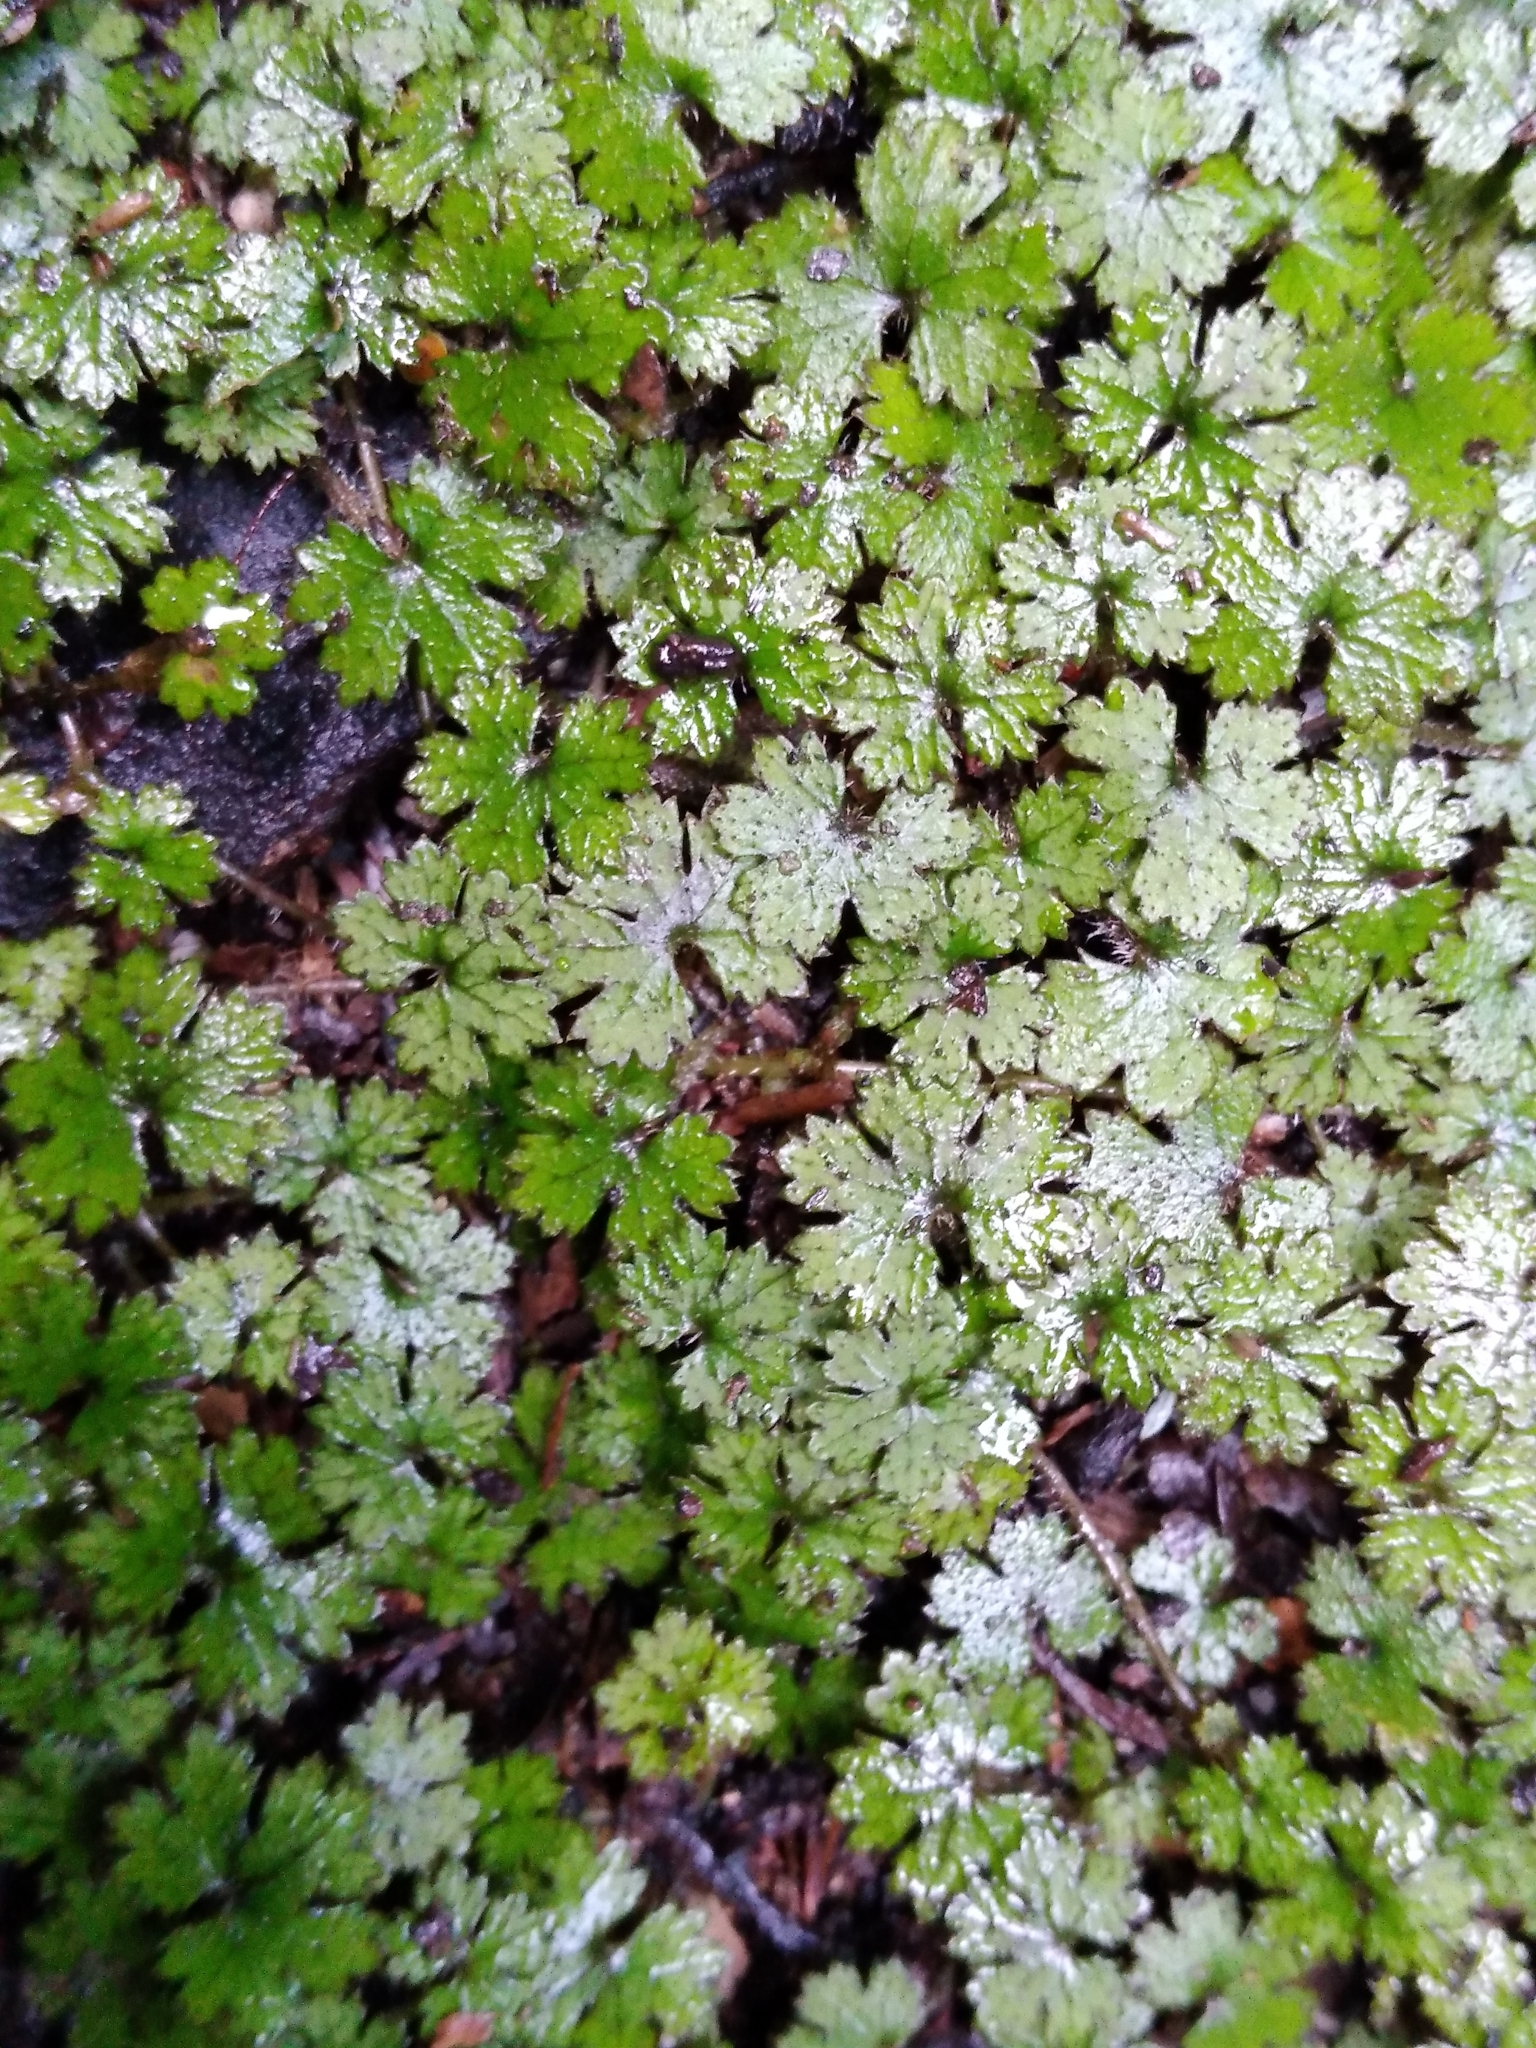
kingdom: Plantae
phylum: Tracheophyta
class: Magnoliopsida
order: Apiales
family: Araliaceae
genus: Hydrocotyle
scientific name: Hydrocotyle dissecta
